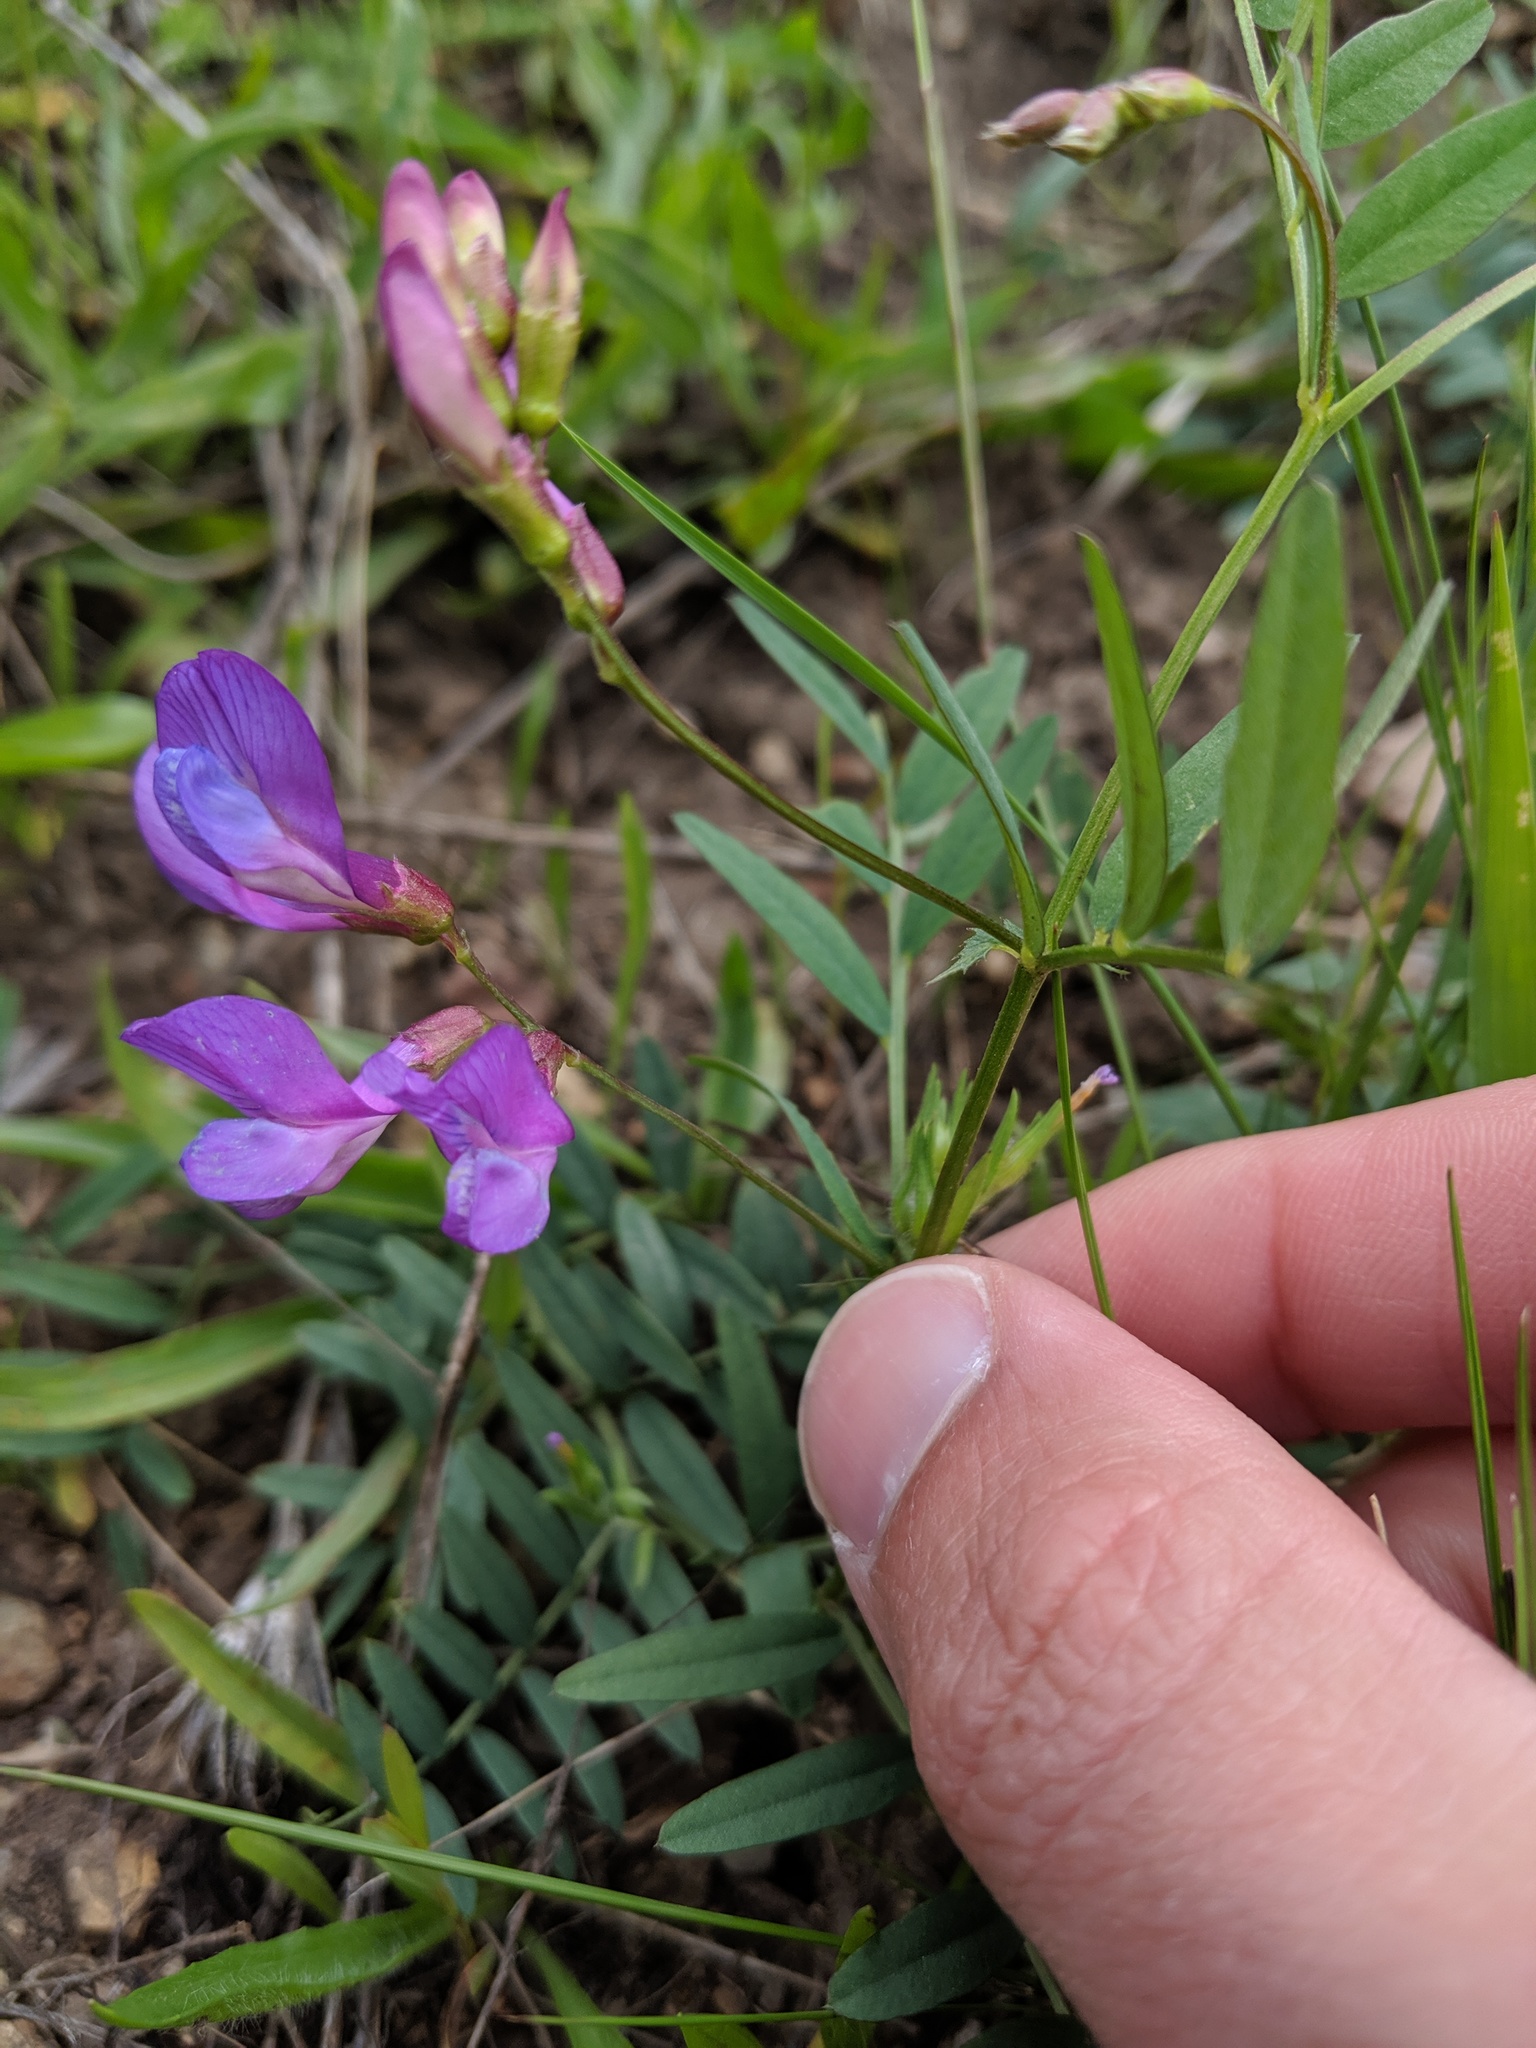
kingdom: Plantae
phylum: Tracheophyta
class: Magnoliopsida
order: Fabales
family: Fabaceae
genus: Vicia
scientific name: Vicia americana
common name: American vetch
